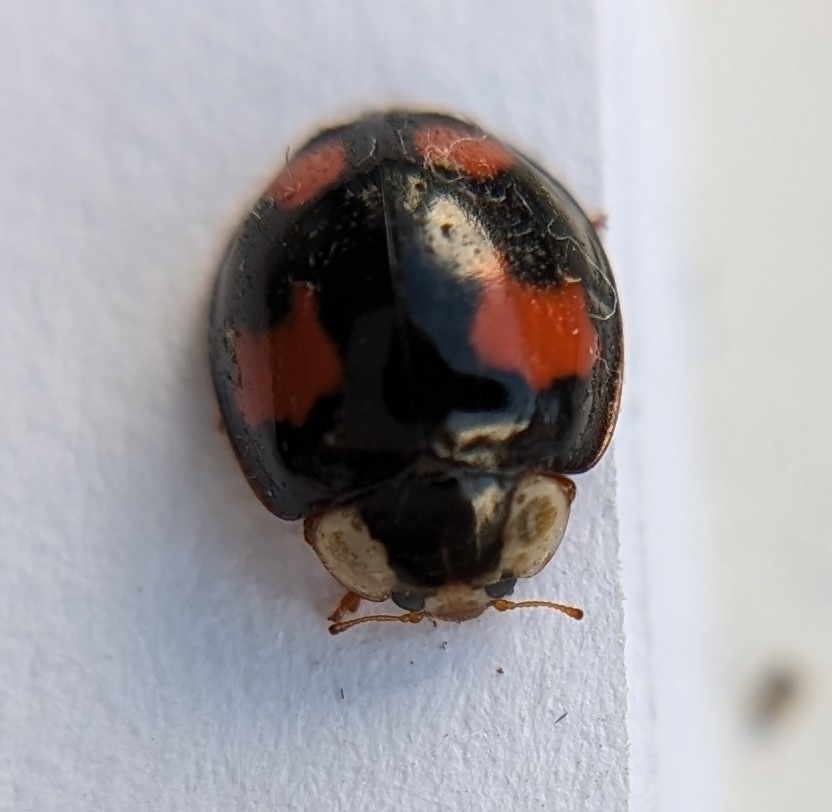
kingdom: Animalia
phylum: Arthropoda
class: Insecta
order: Coleoptera
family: Coccinellidae
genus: Harmonia
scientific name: Harmonia axyridis
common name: Harlequin ladybird
